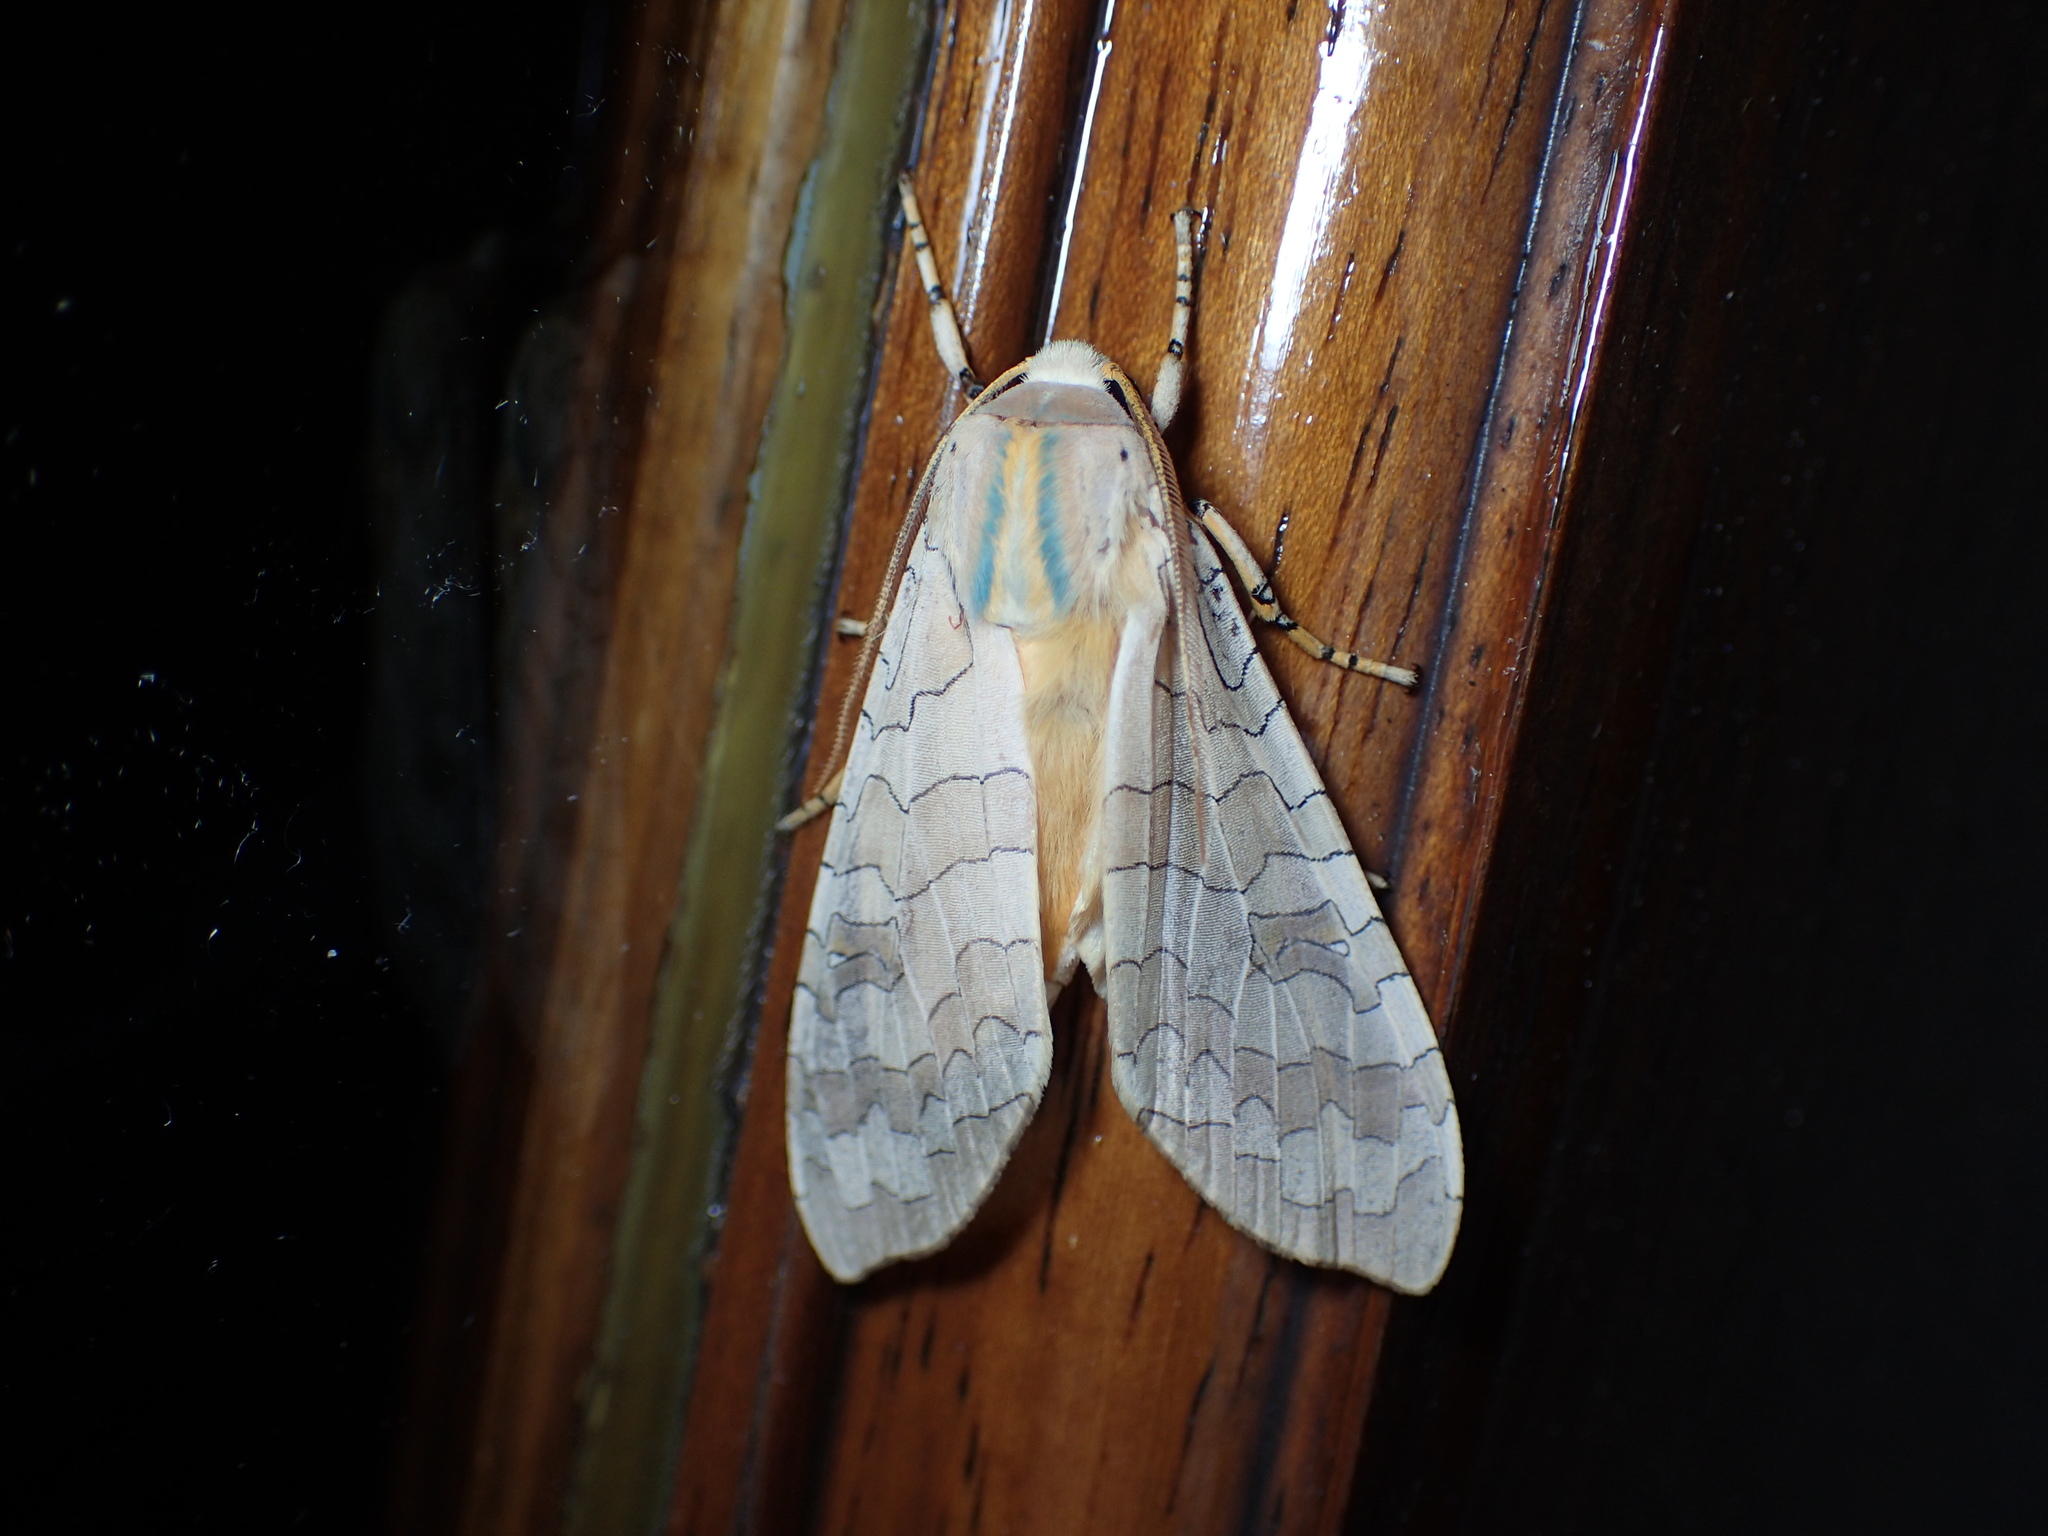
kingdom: Animalia
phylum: Arthropoda
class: Insecta
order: Lepidoptera
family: Erebidae
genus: Halysidota
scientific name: Halysidota
